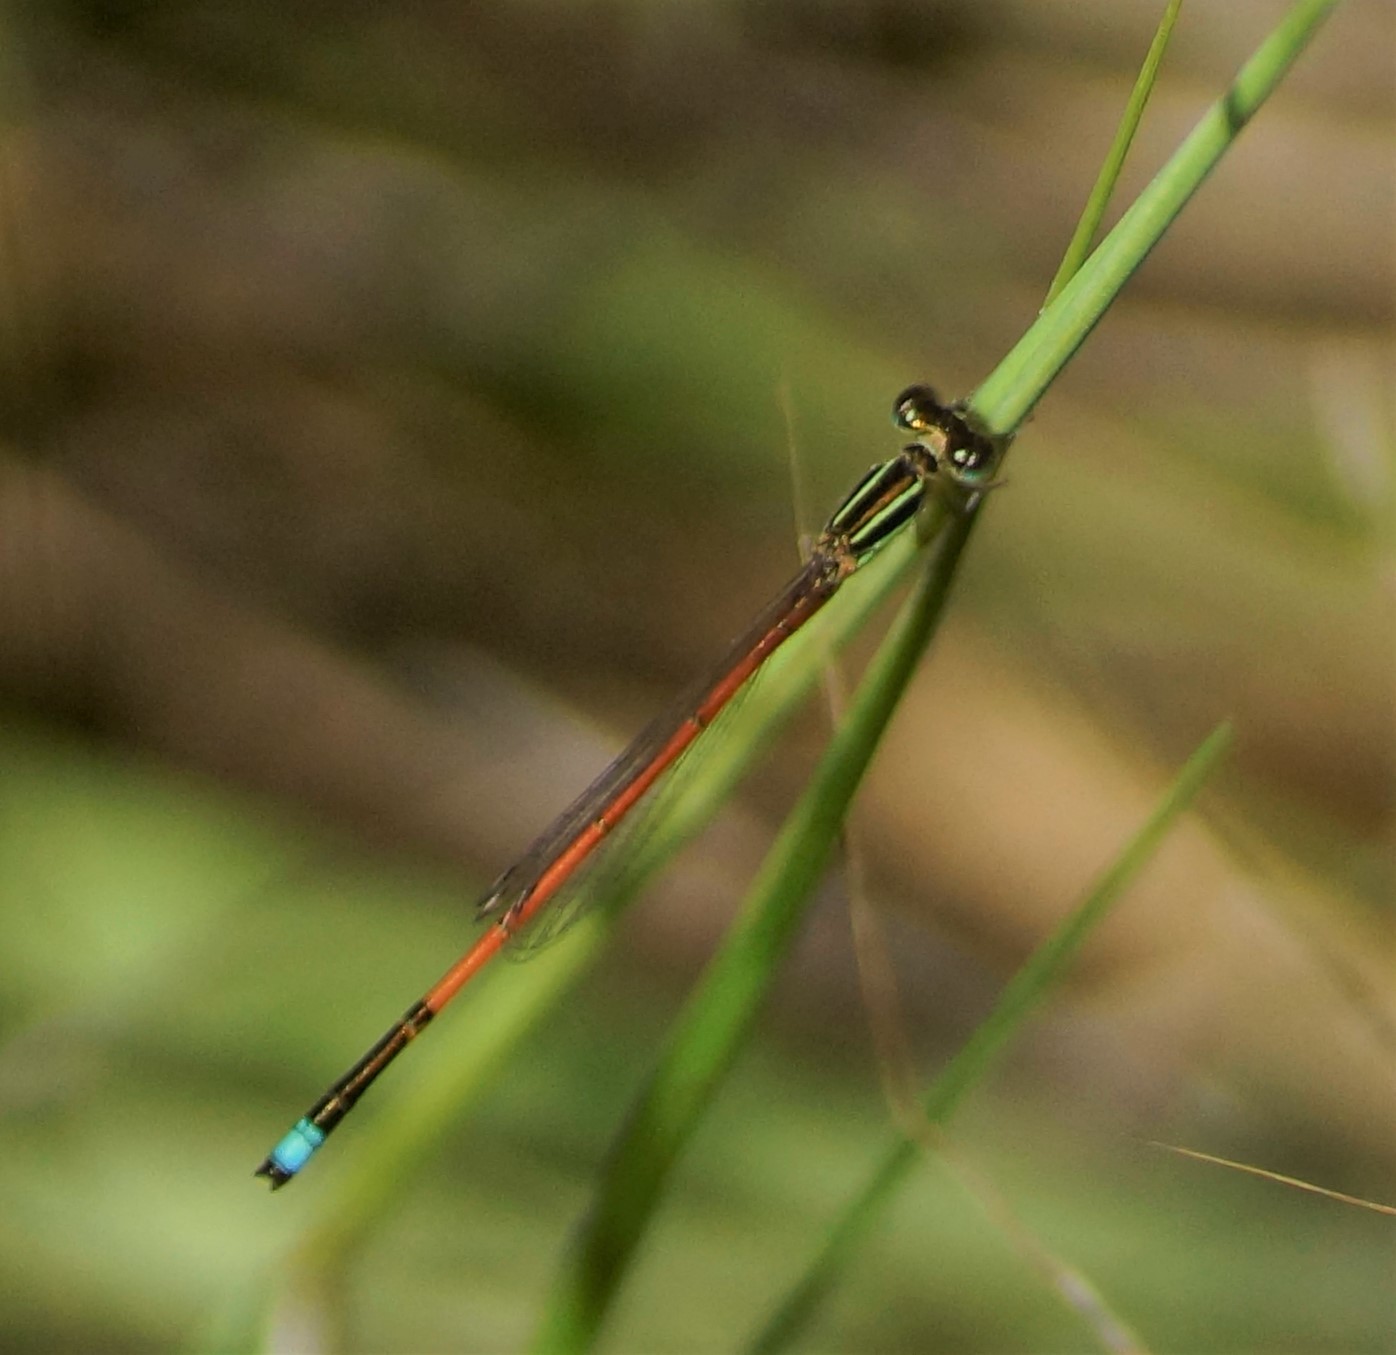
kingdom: Animalia
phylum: Arthropoda
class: Insecta
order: Odonata
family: Coenagrionidae
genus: Ischnura
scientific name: Ischnura aurora
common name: Gossamer damselfly
